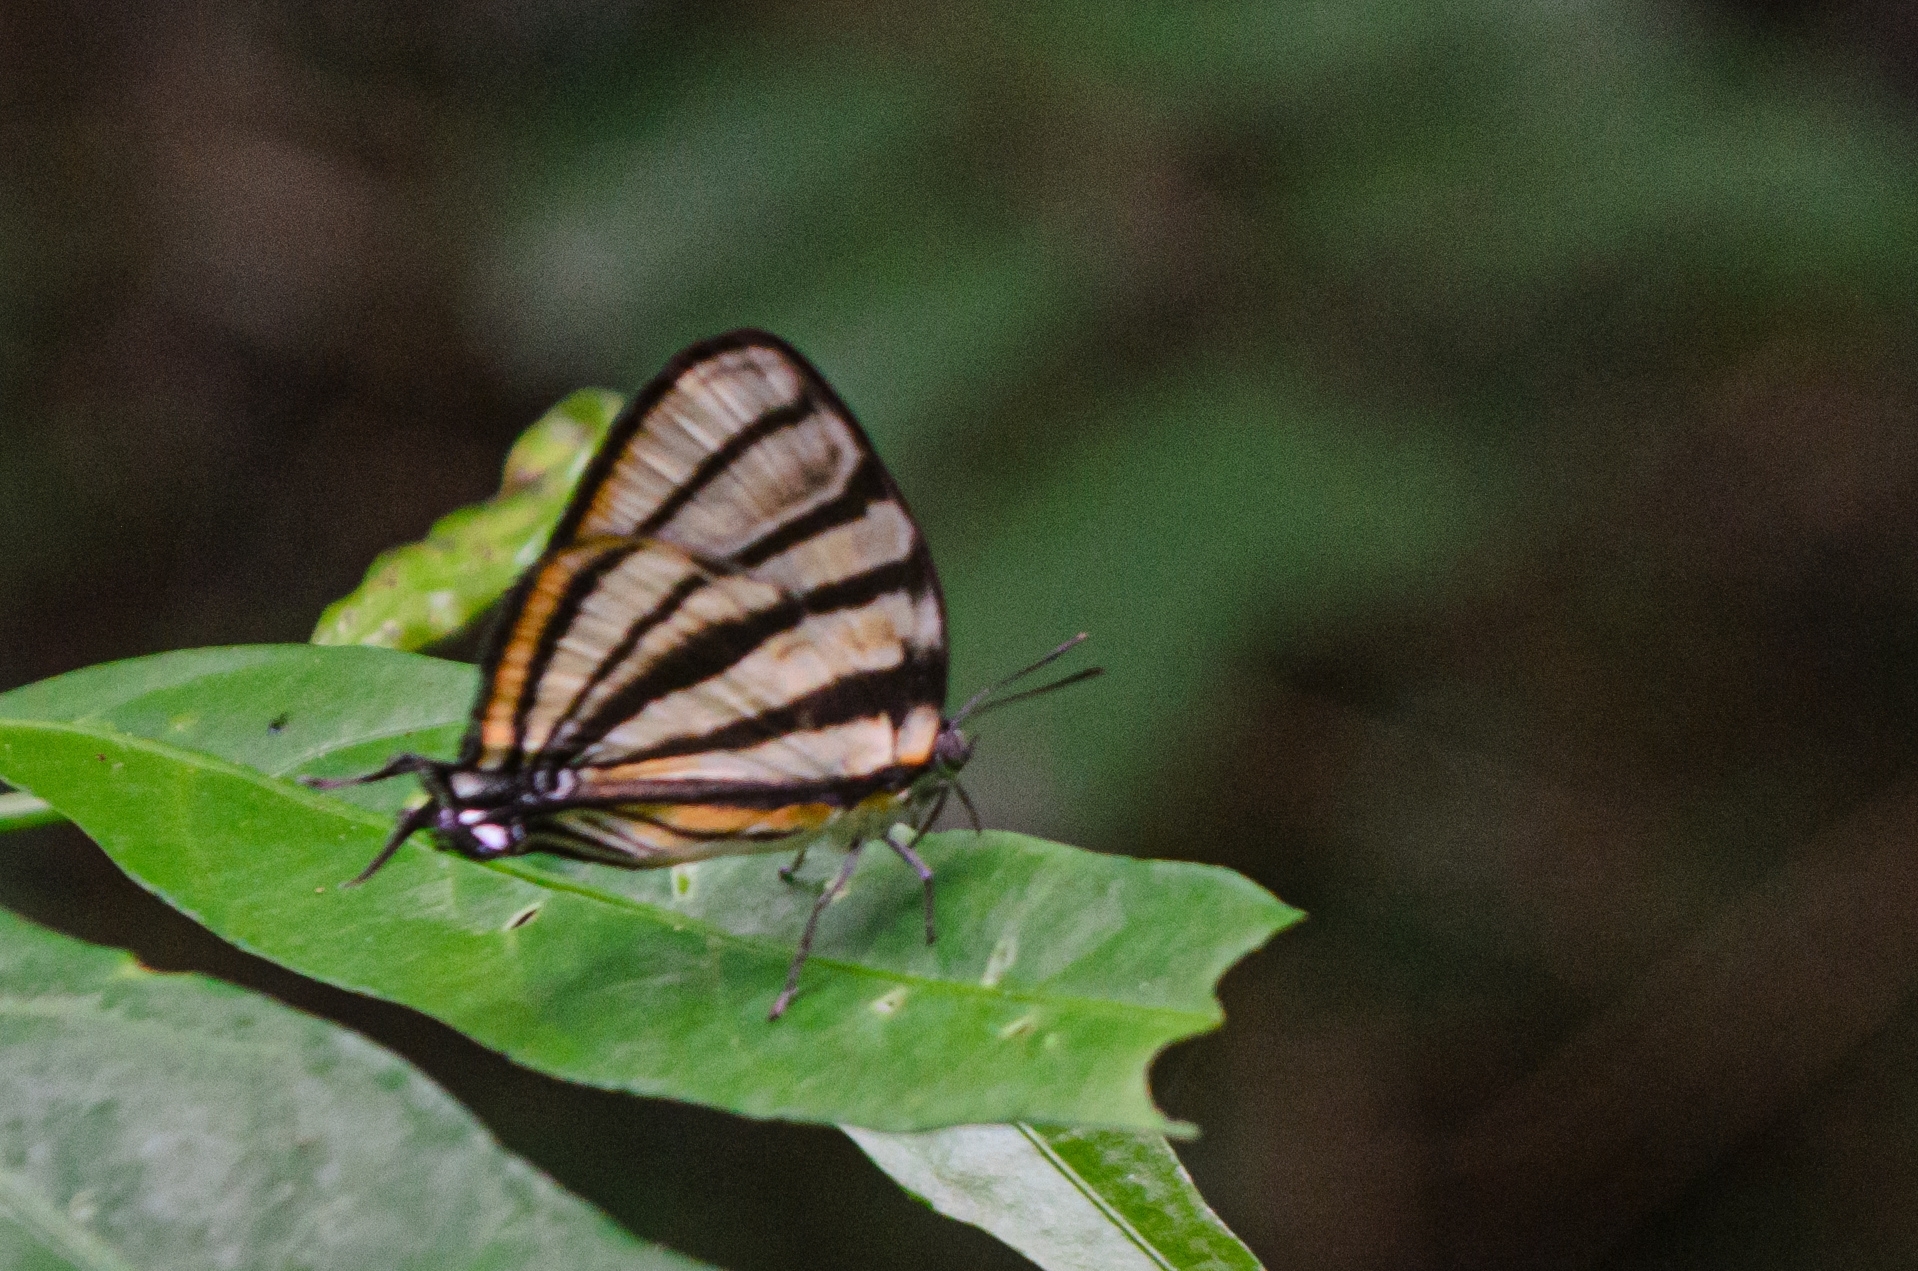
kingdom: Animalia
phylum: Arthropoda
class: Insecta
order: Lepidoptera
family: Lycaenidae
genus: Arawacus
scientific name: Arawacus separata
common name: Separated stripestreak
